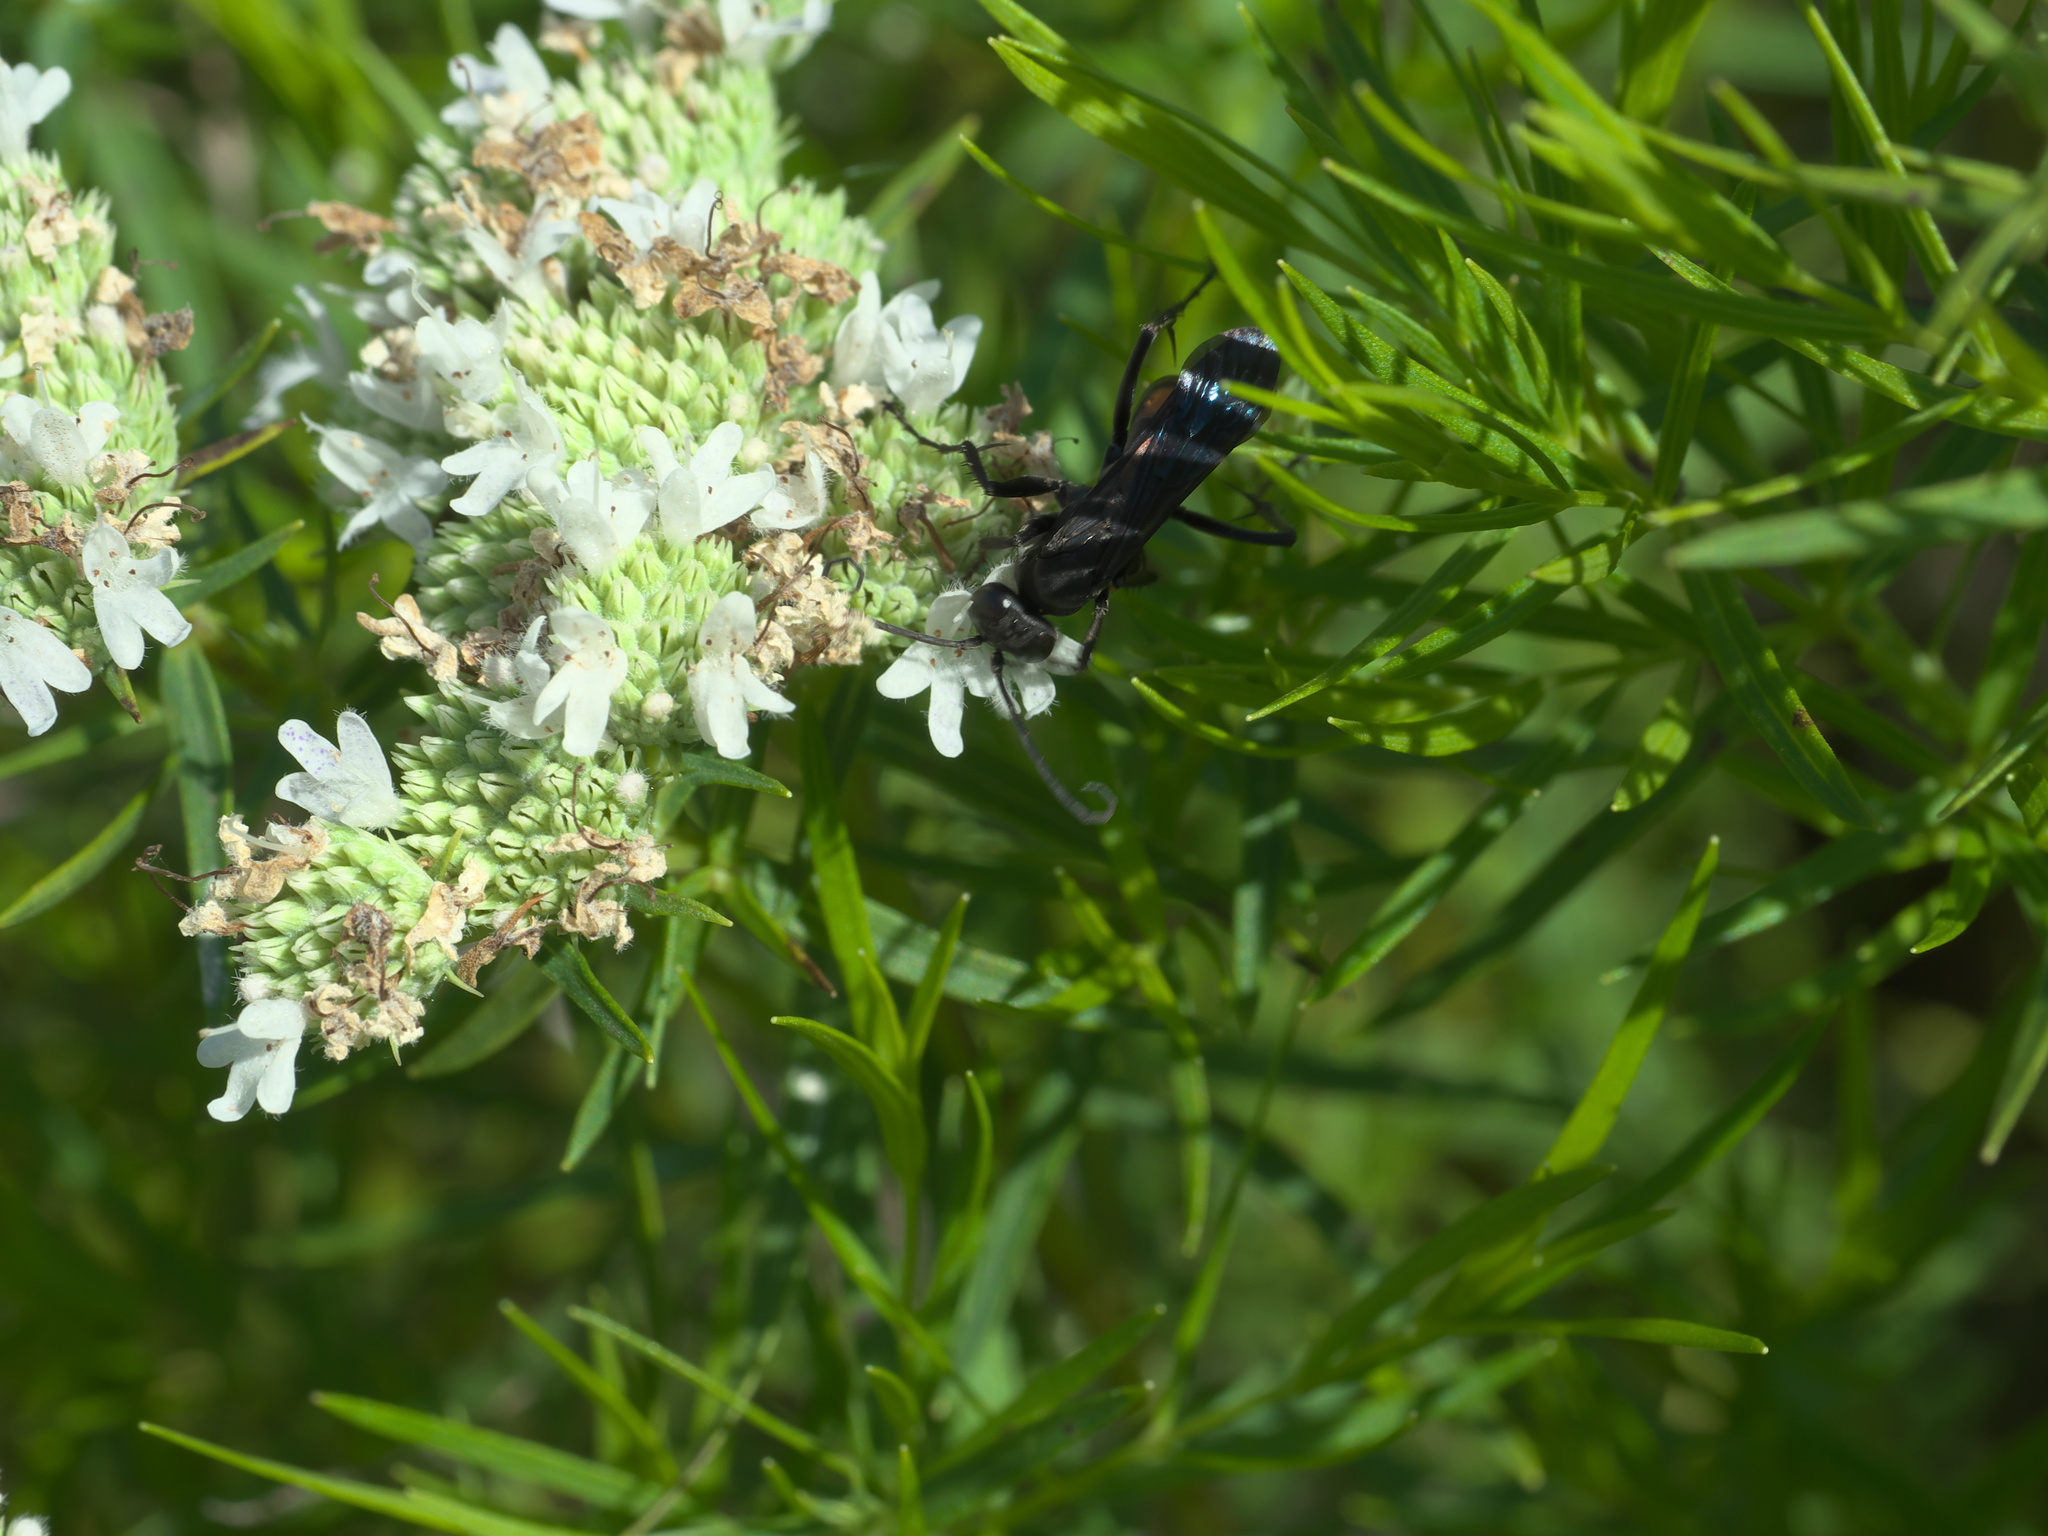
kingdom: Plantae
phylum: Tracheophyta
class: Magnoliopsida
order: Lamiales
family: Lamiaceae
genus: Pycnanthemum
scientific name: Pycnanthemum tenuifolium
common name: Narrow-leaf mountain-mint
